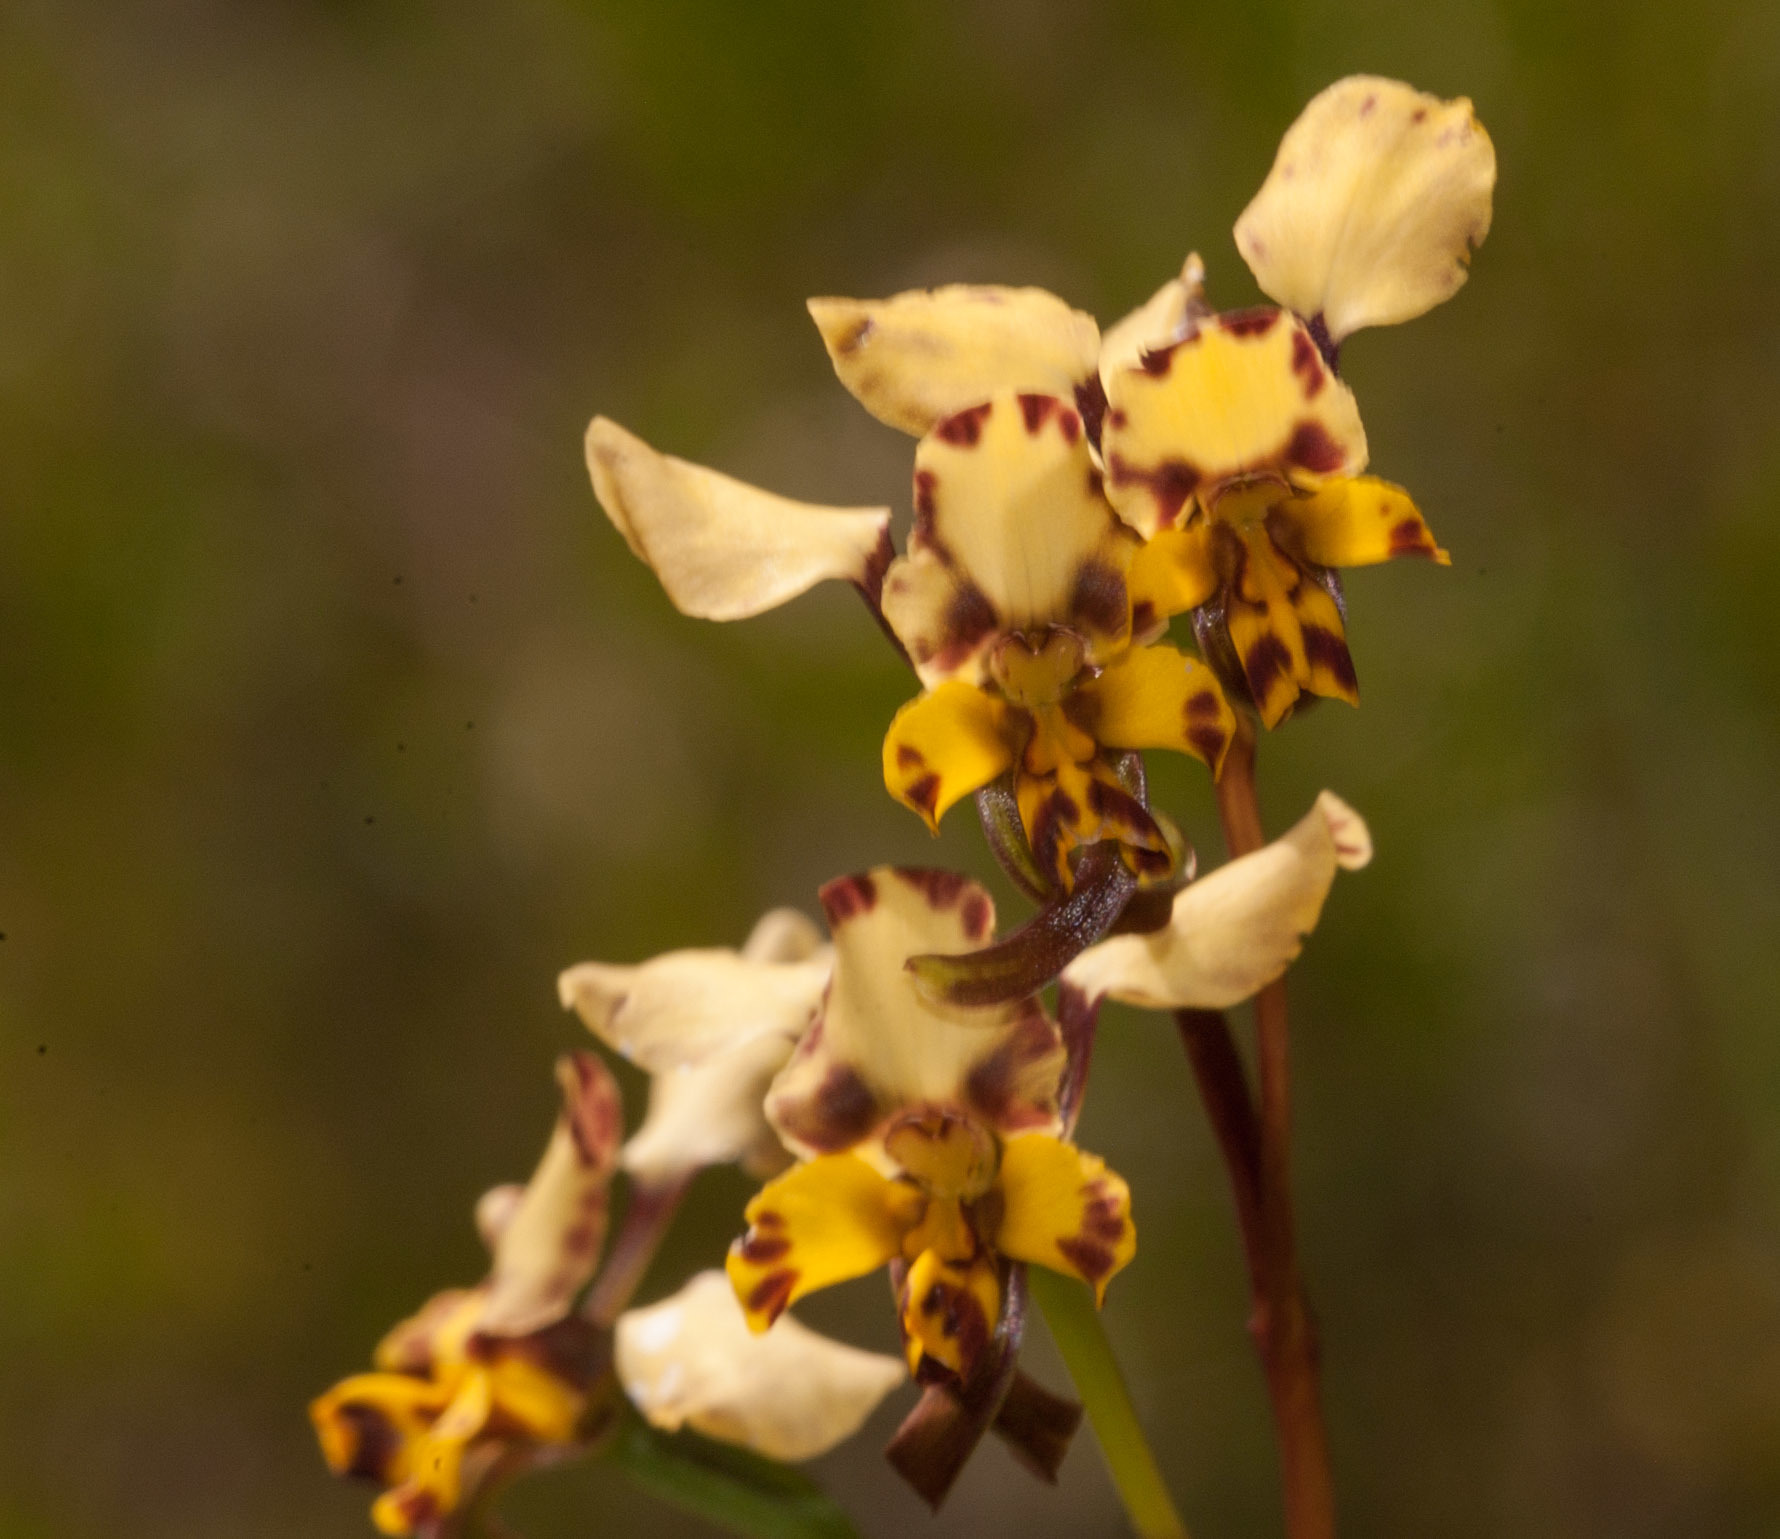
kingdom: Plantae
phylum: Tracheophyta
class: Liliopsida
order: Asparagales
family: Orchidaceae
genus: Diuris
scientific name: Diuris pardina
